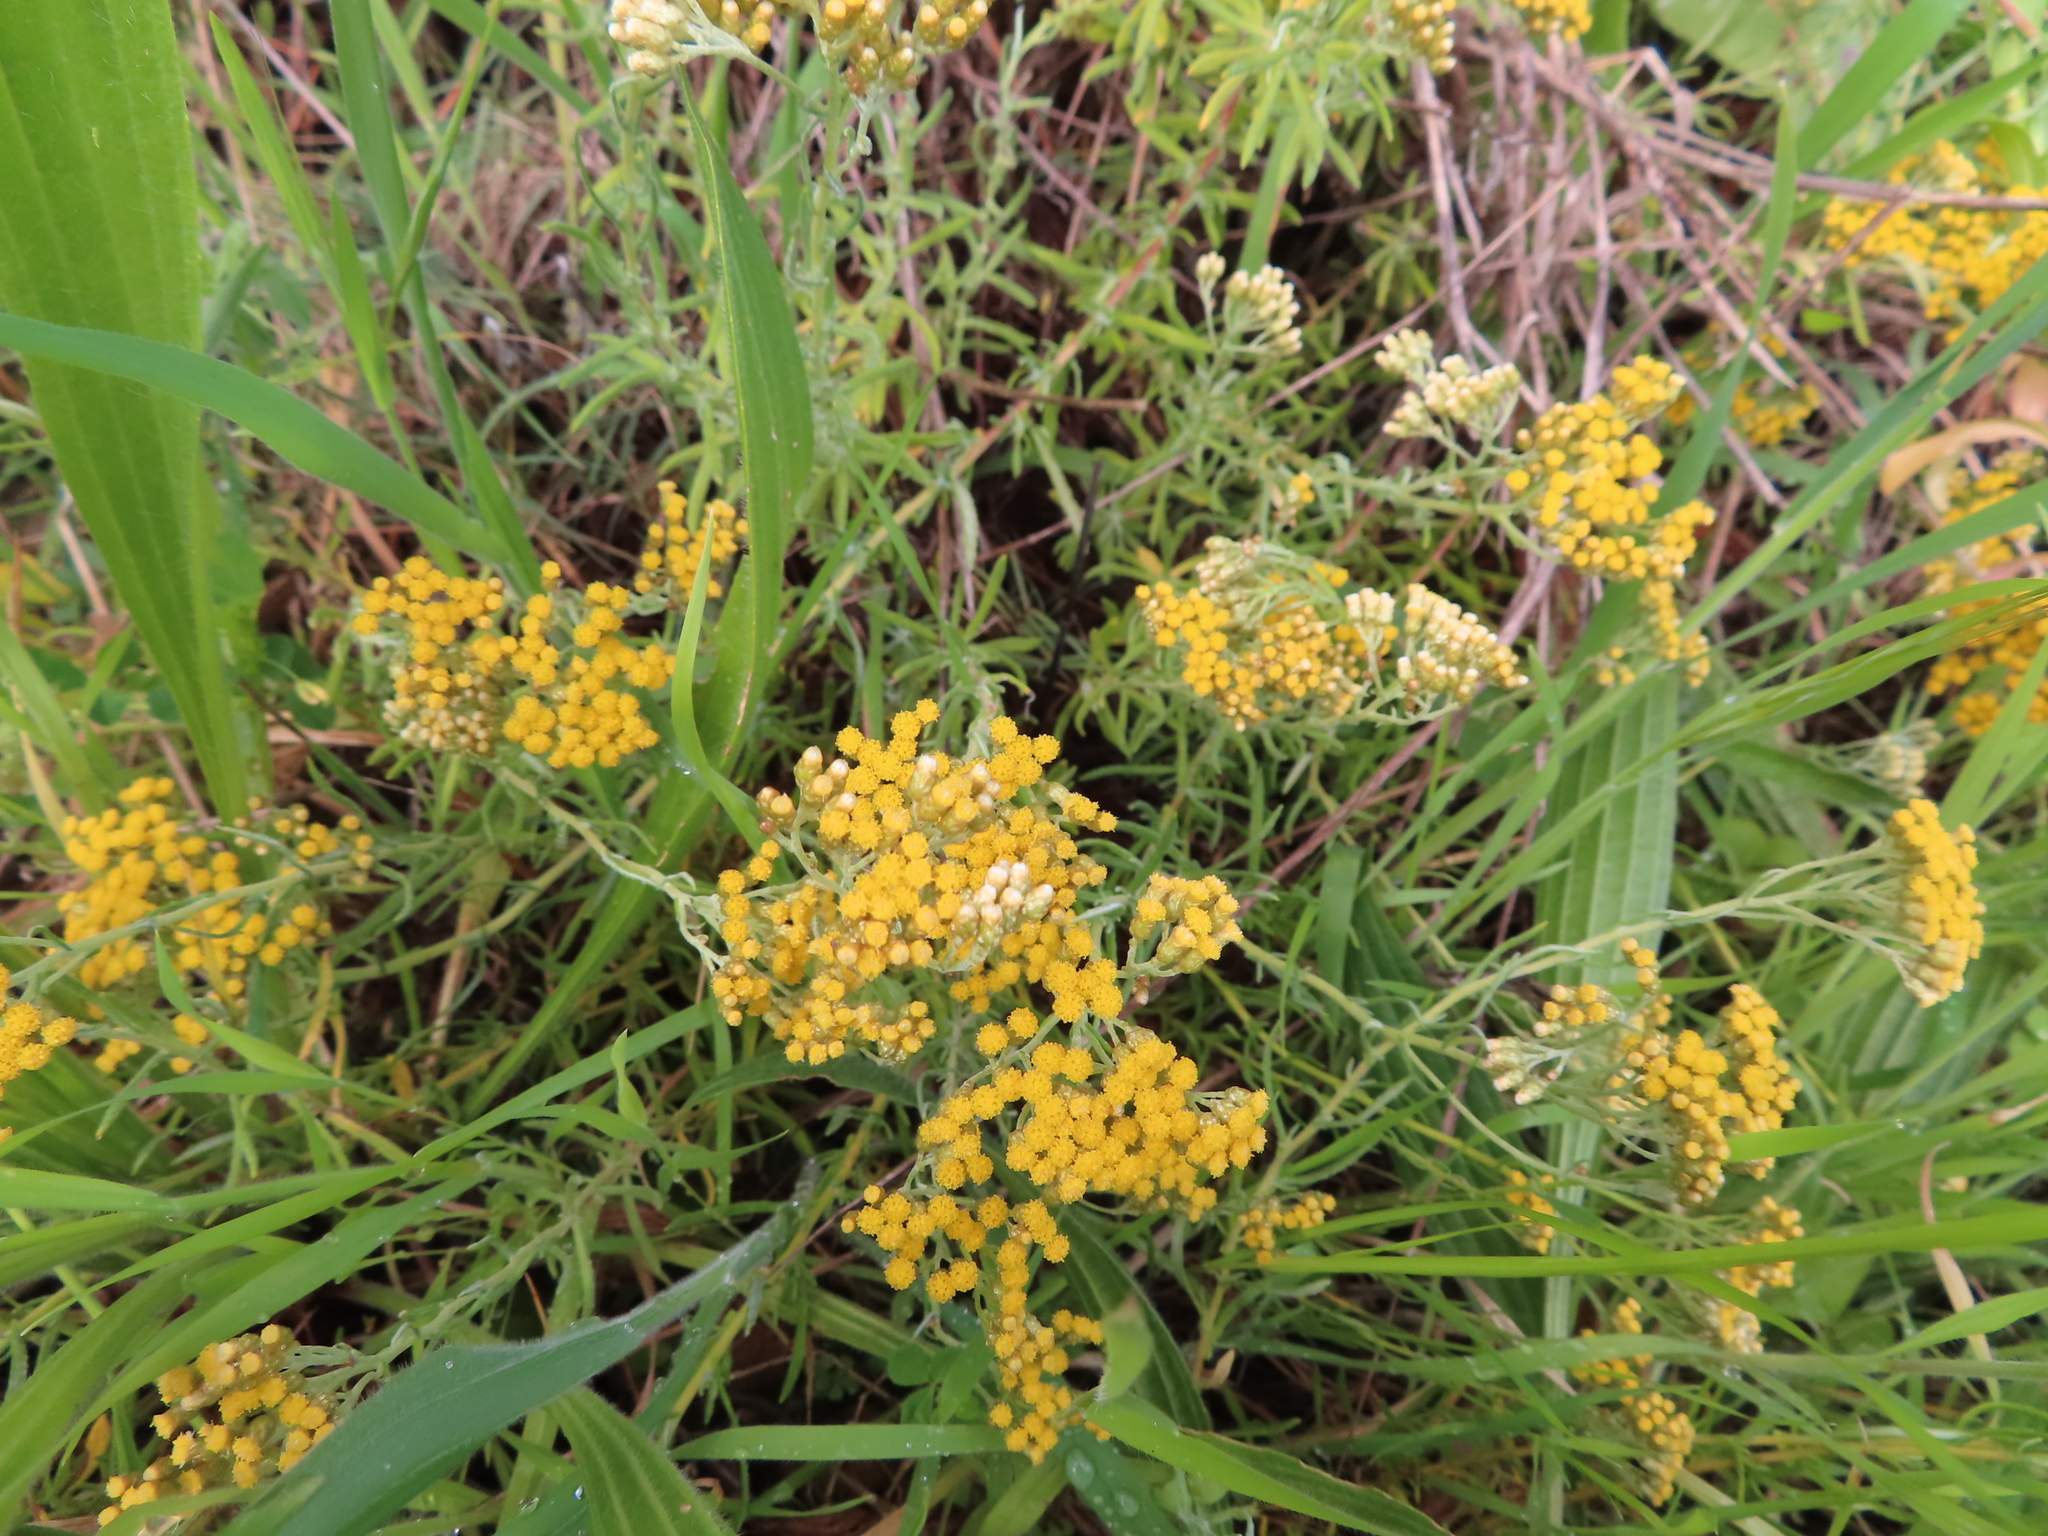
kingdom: Plantae
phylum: Tracheophyta
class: Magnoliopsida
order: Asterales
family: Asteraceae
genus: Helichrysum
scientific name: Helichrysum cymosum
